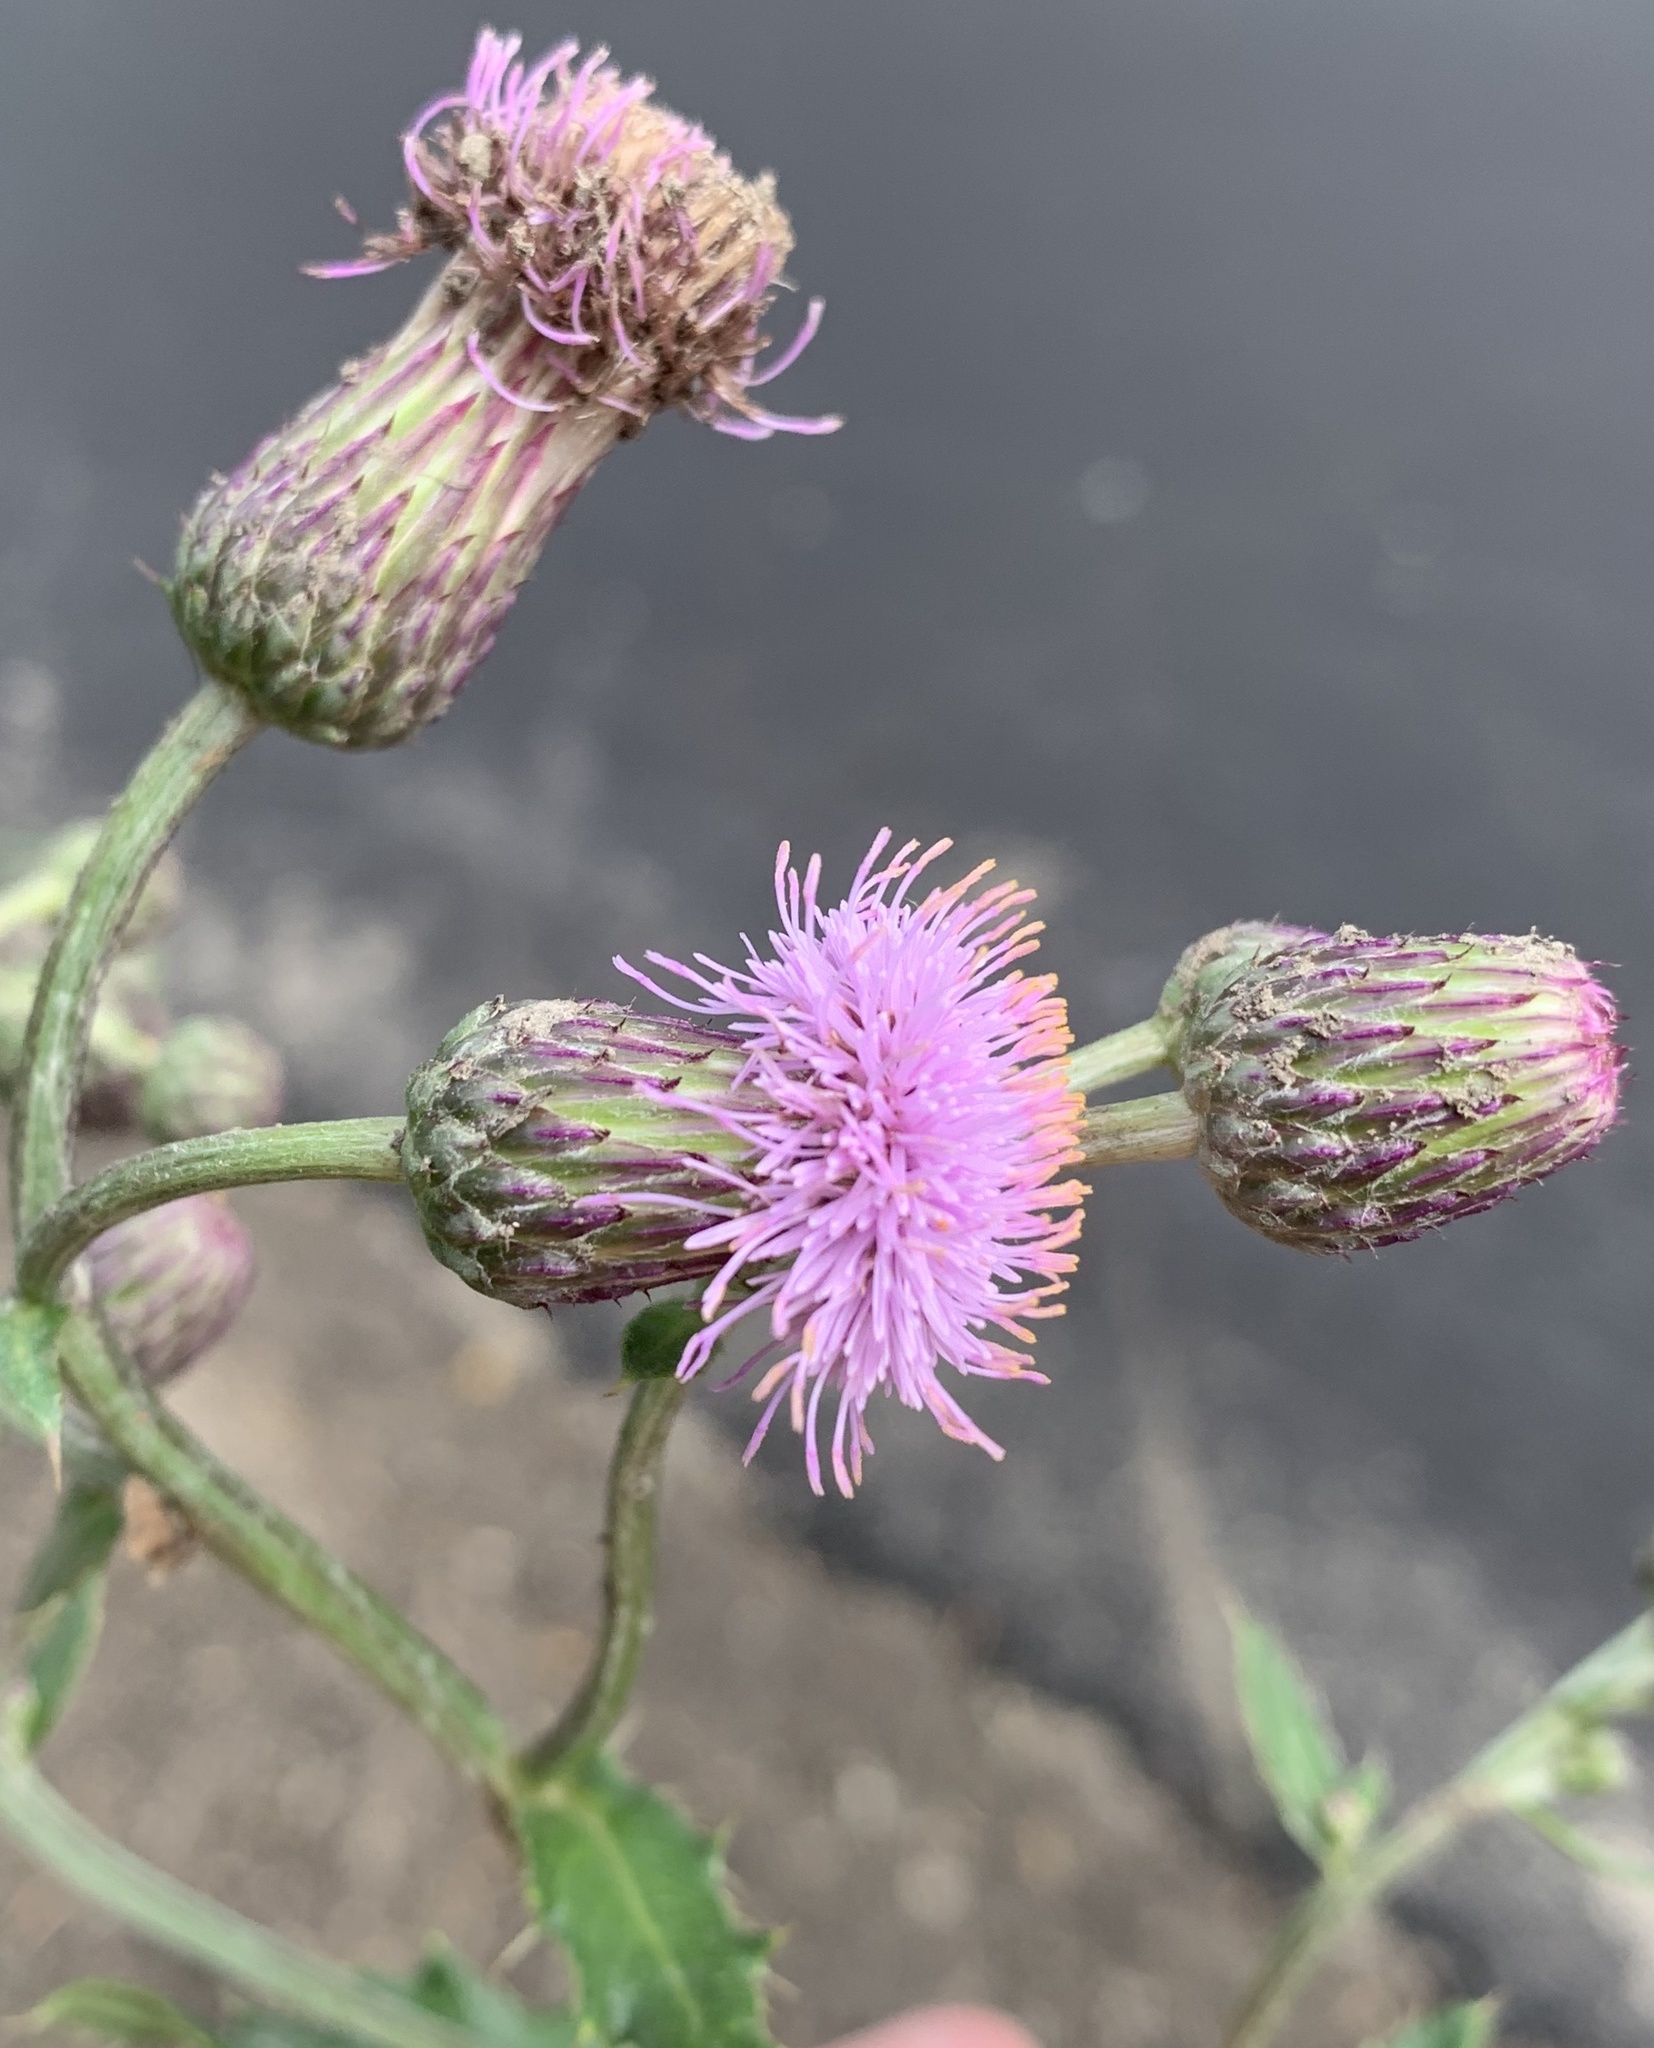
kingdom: Plantae
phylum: Tracheophyta
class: Magnoliopsida
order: Asterales
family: Asteraceae
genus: Cirsium
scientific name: Cirsium arvense
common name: Creeping thistle
